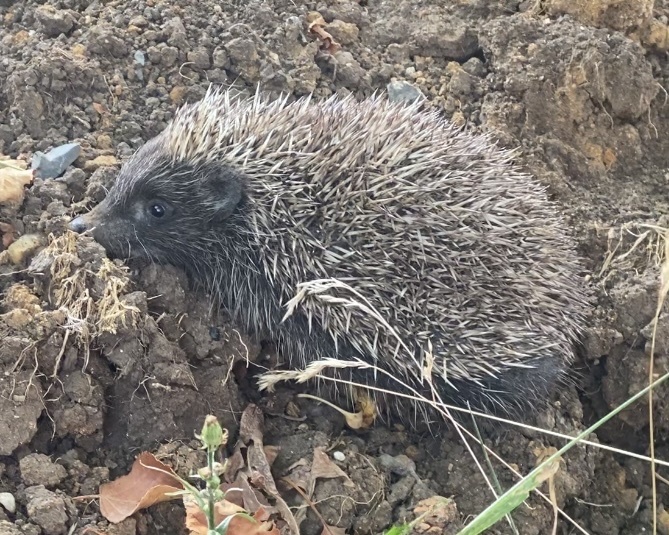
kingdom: Animalia
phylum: Chordata
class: Mammalia
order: Erinaceomorpha
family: Erinaceidae
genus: Erinaceus
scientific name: Erinaceus roumanicus
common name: Northern white-breasted hedgehog
